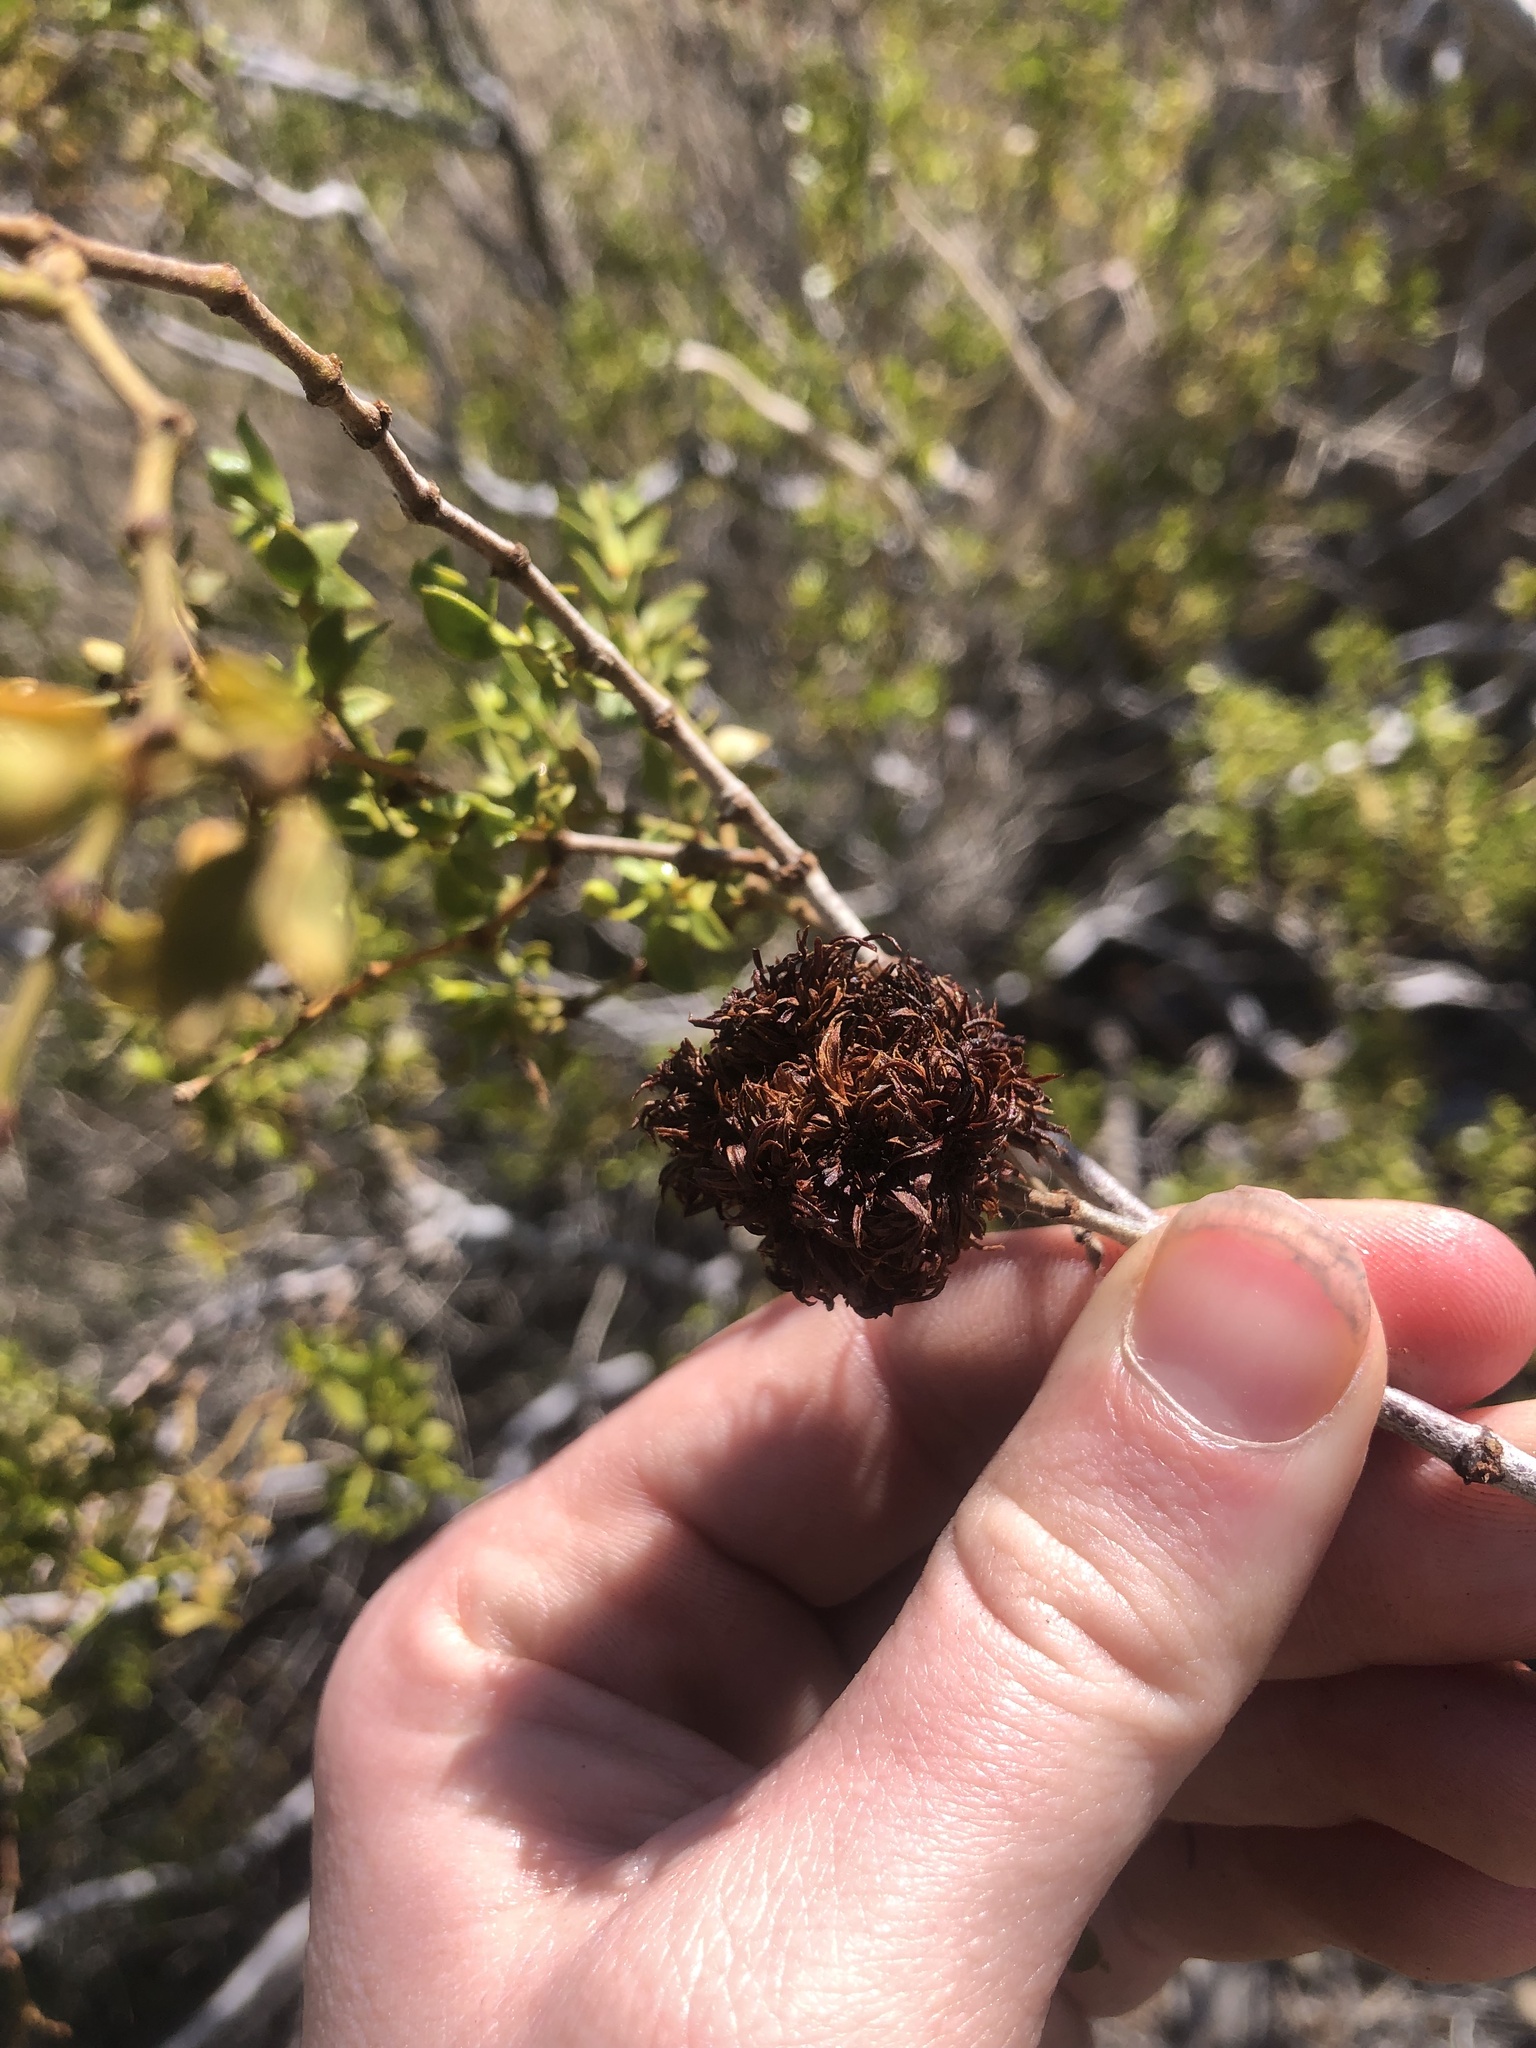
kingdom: Animalia
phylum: Arthropoda
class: Insecta
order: Diptera
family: Cecidomyiidae
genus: Asphondylia
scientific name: Asphondylia auripila
